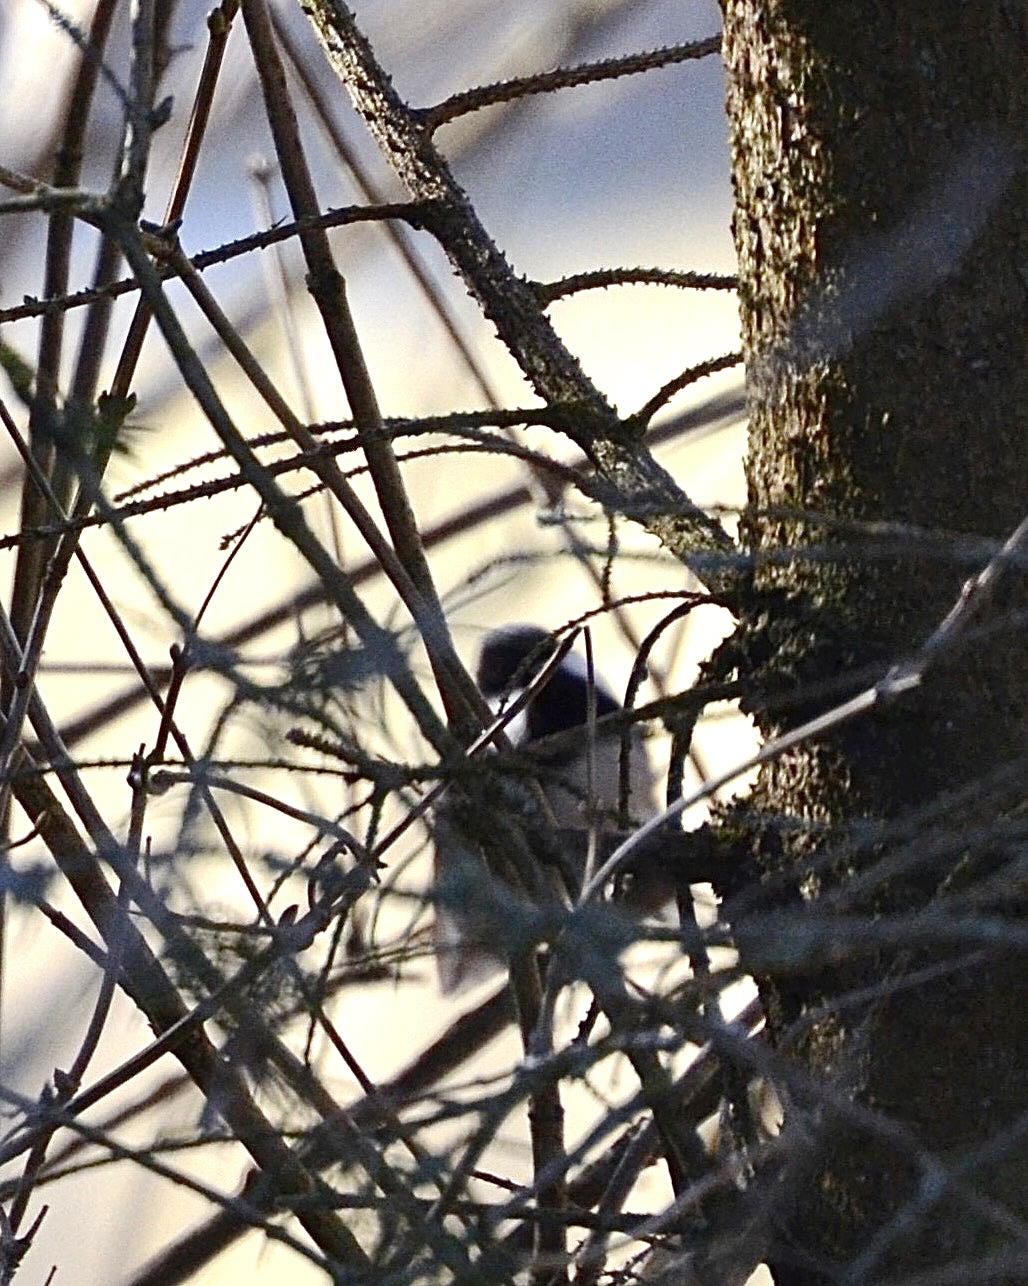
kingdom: Animalia
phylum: Chordata
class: Aves
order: Passeriformes
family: Paridae
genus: Periparus
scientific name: Periparus ater
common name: Coal tit
